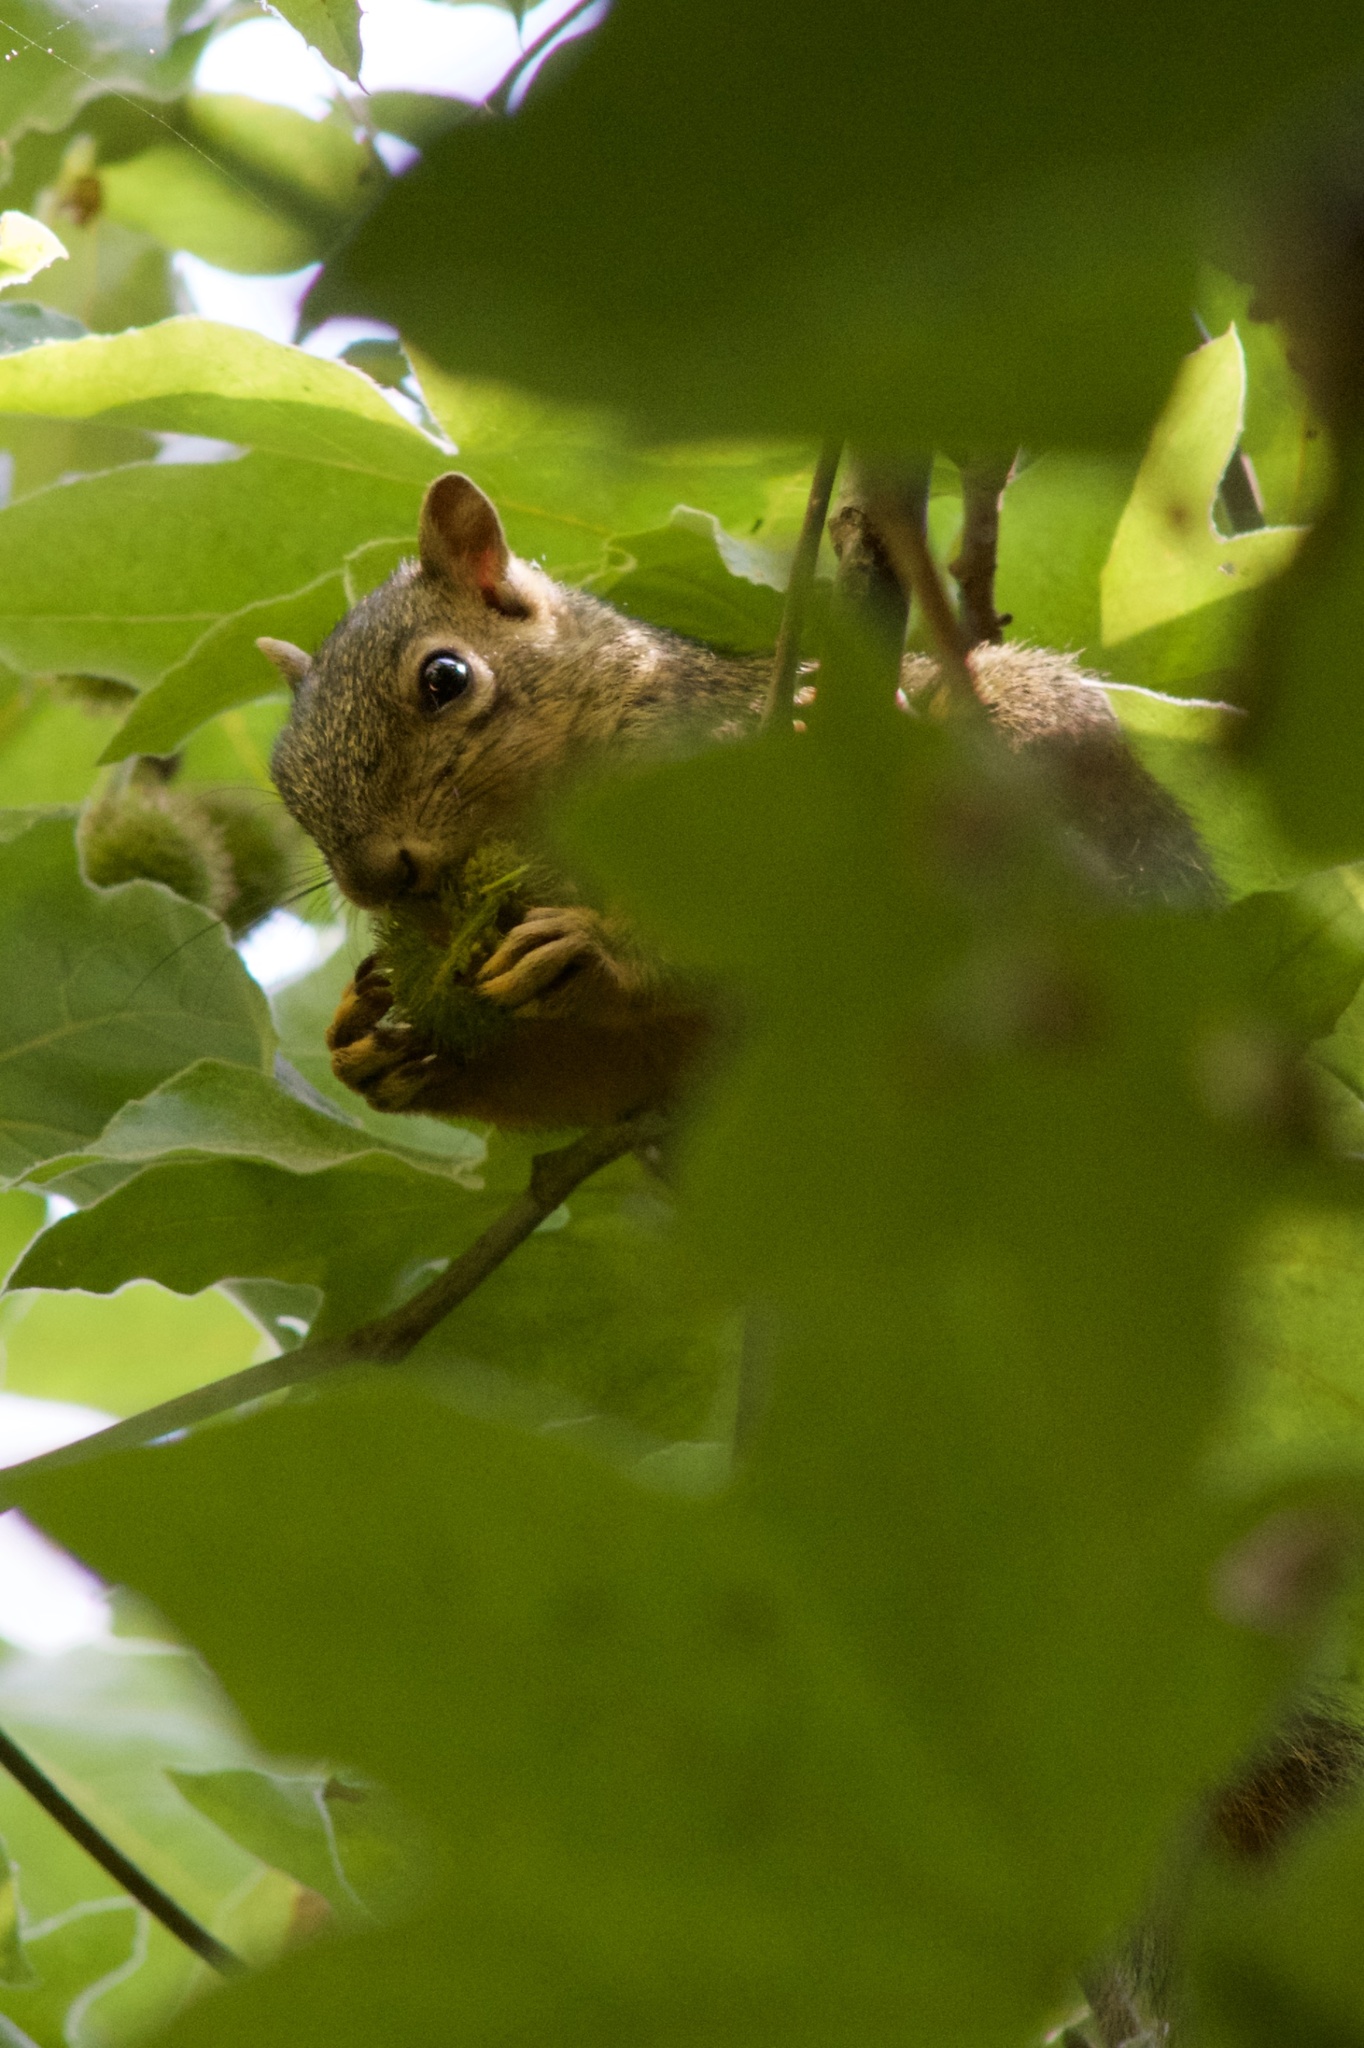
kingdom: Animalia
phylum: Chordata
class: Mammalia
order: Rodentia
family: Sciuridae
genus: Sciurus
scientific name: Sciurus niger
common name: Fox squirrel
